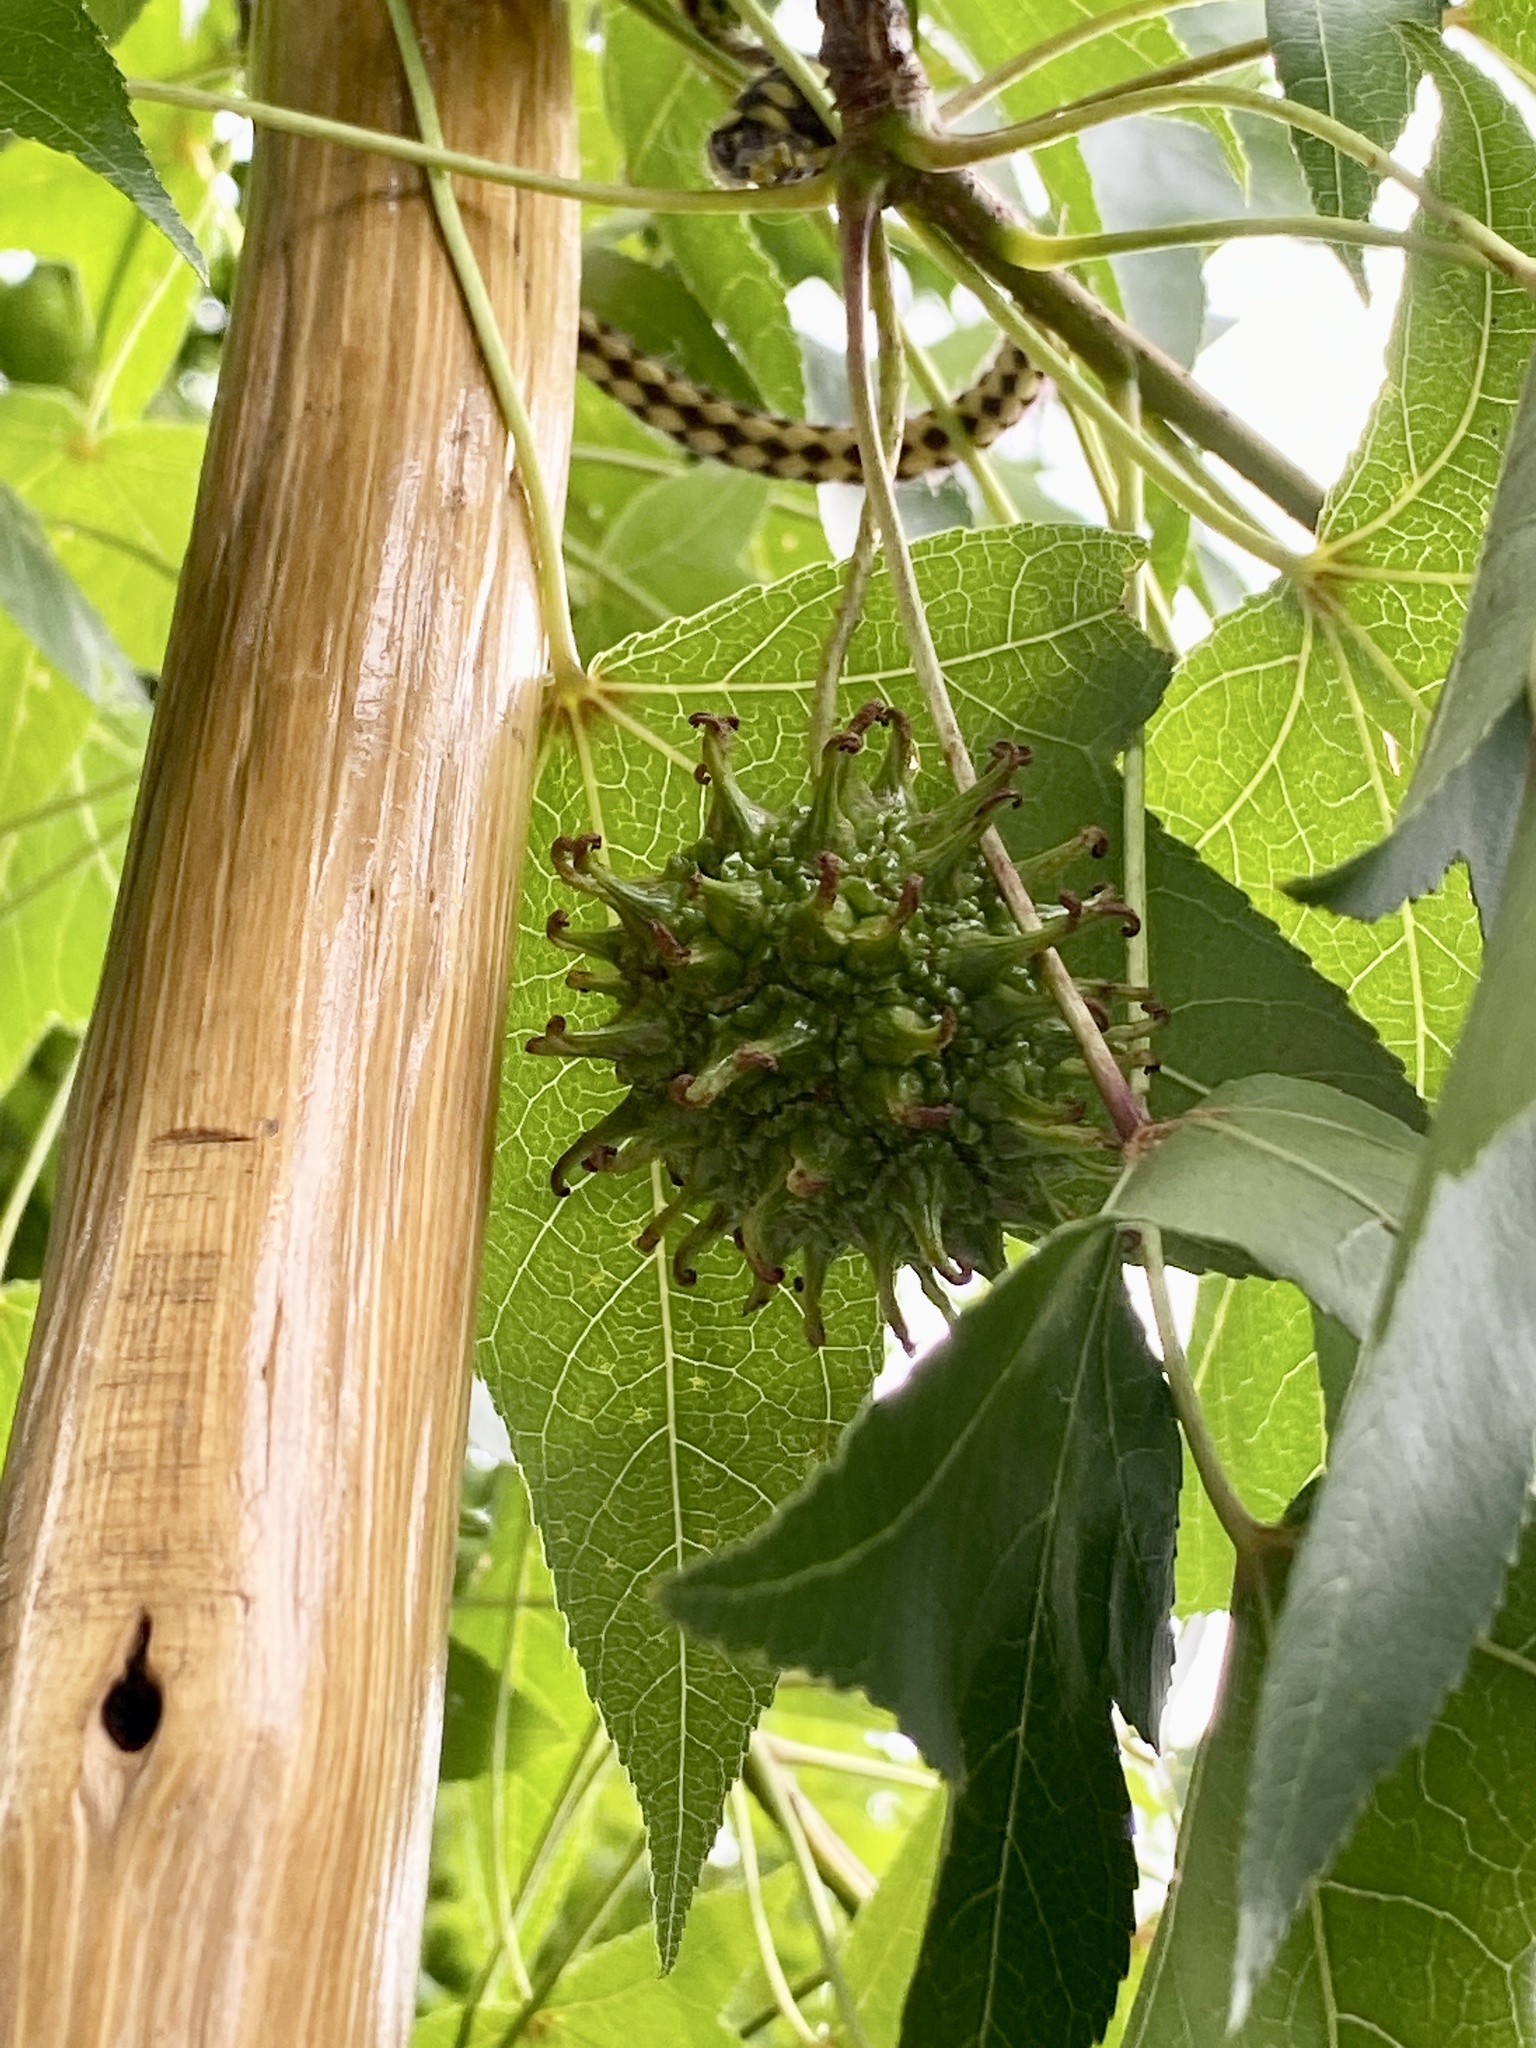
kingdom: Plantae
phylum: Tracheophyta
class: Magnoliopsida
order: Saxifragales
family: Altingiaceae
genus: Liquidambar
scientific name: Liquidambar styraciflua
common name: Sweet gum
